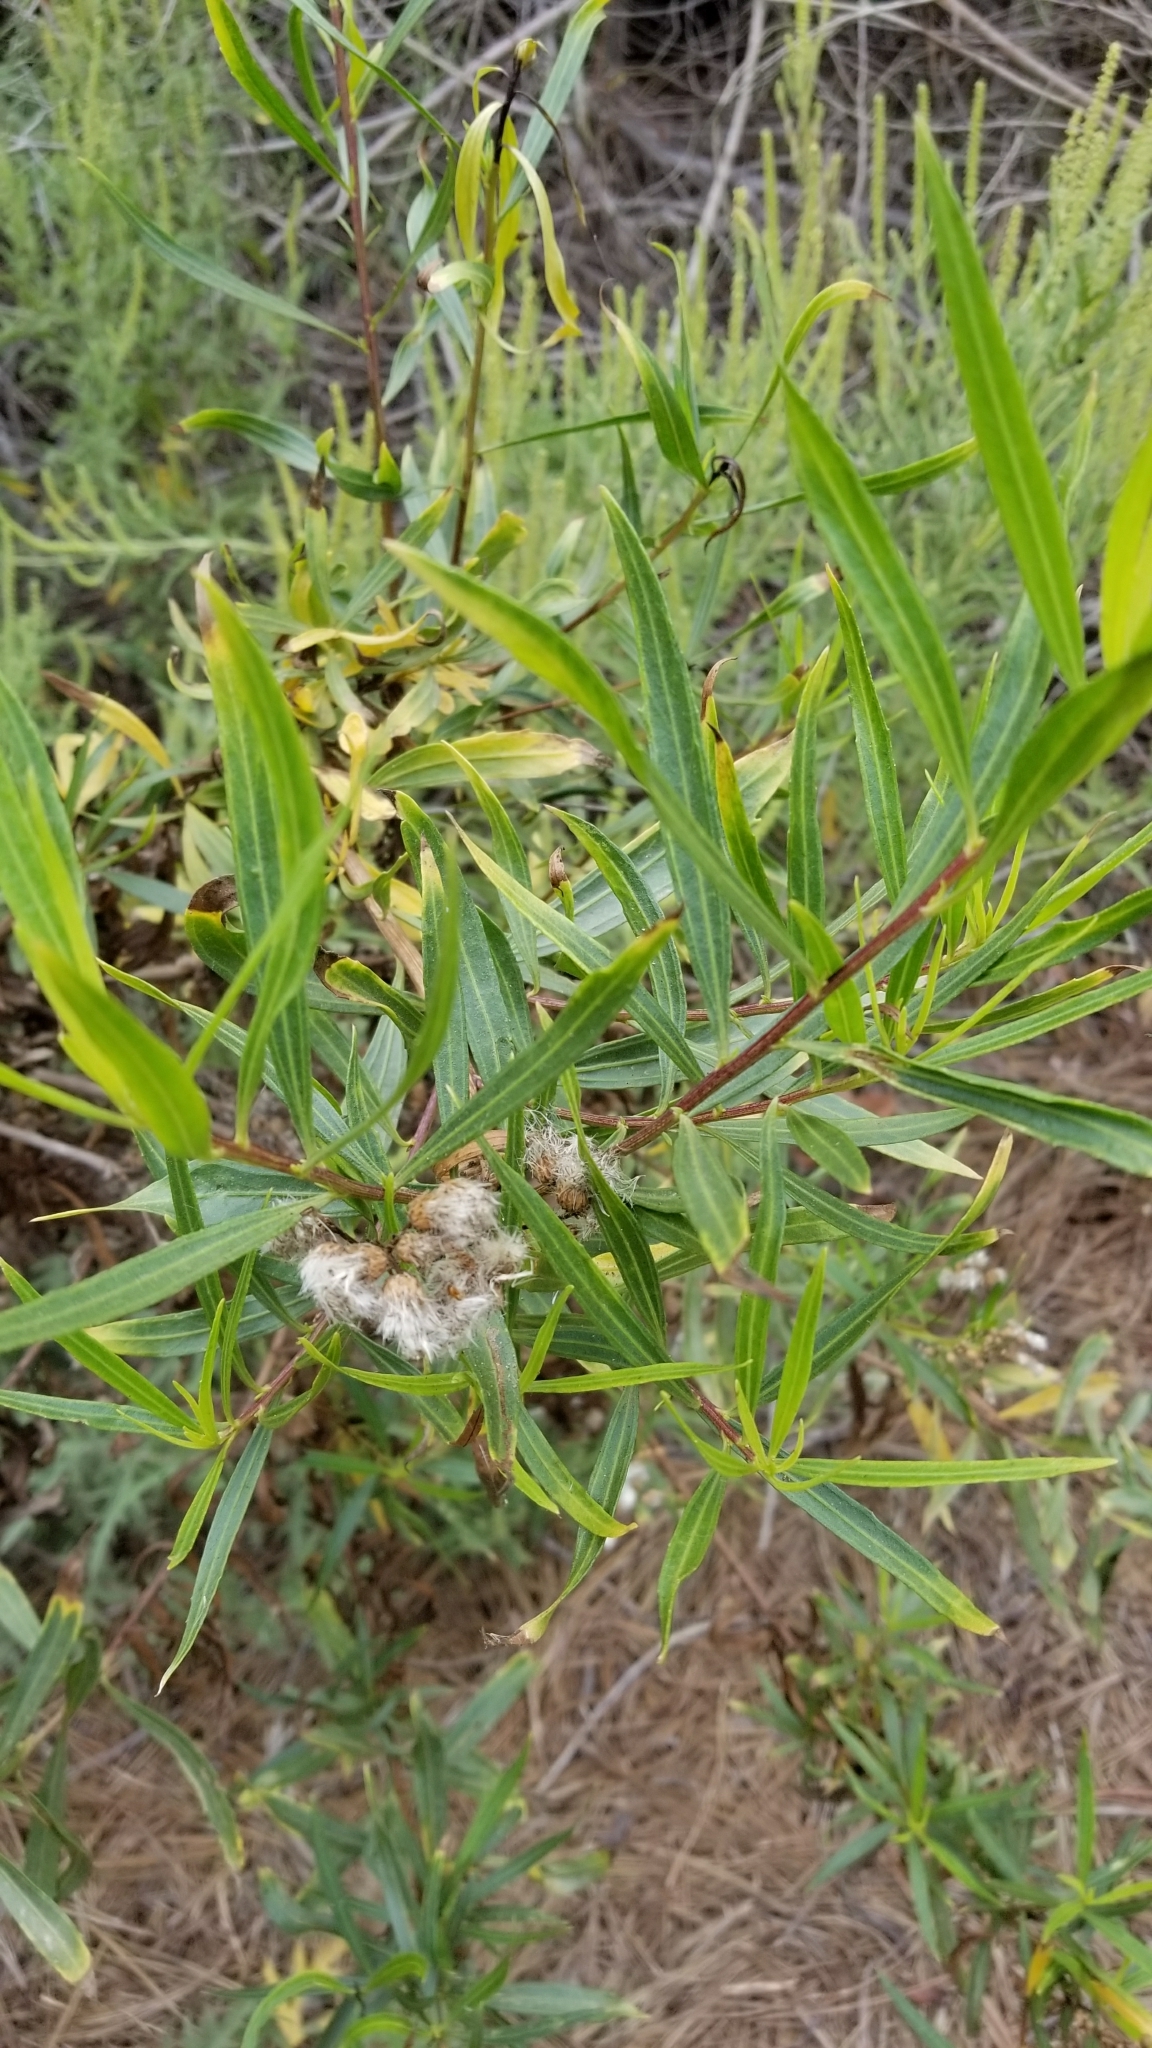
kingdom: Plantae
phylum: Tracheophyta
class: Magnoliopsida
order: Asterales
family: Asteraceae
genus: Baccharis
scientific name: Baccharis salicifolia
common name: Sticky baccharis
